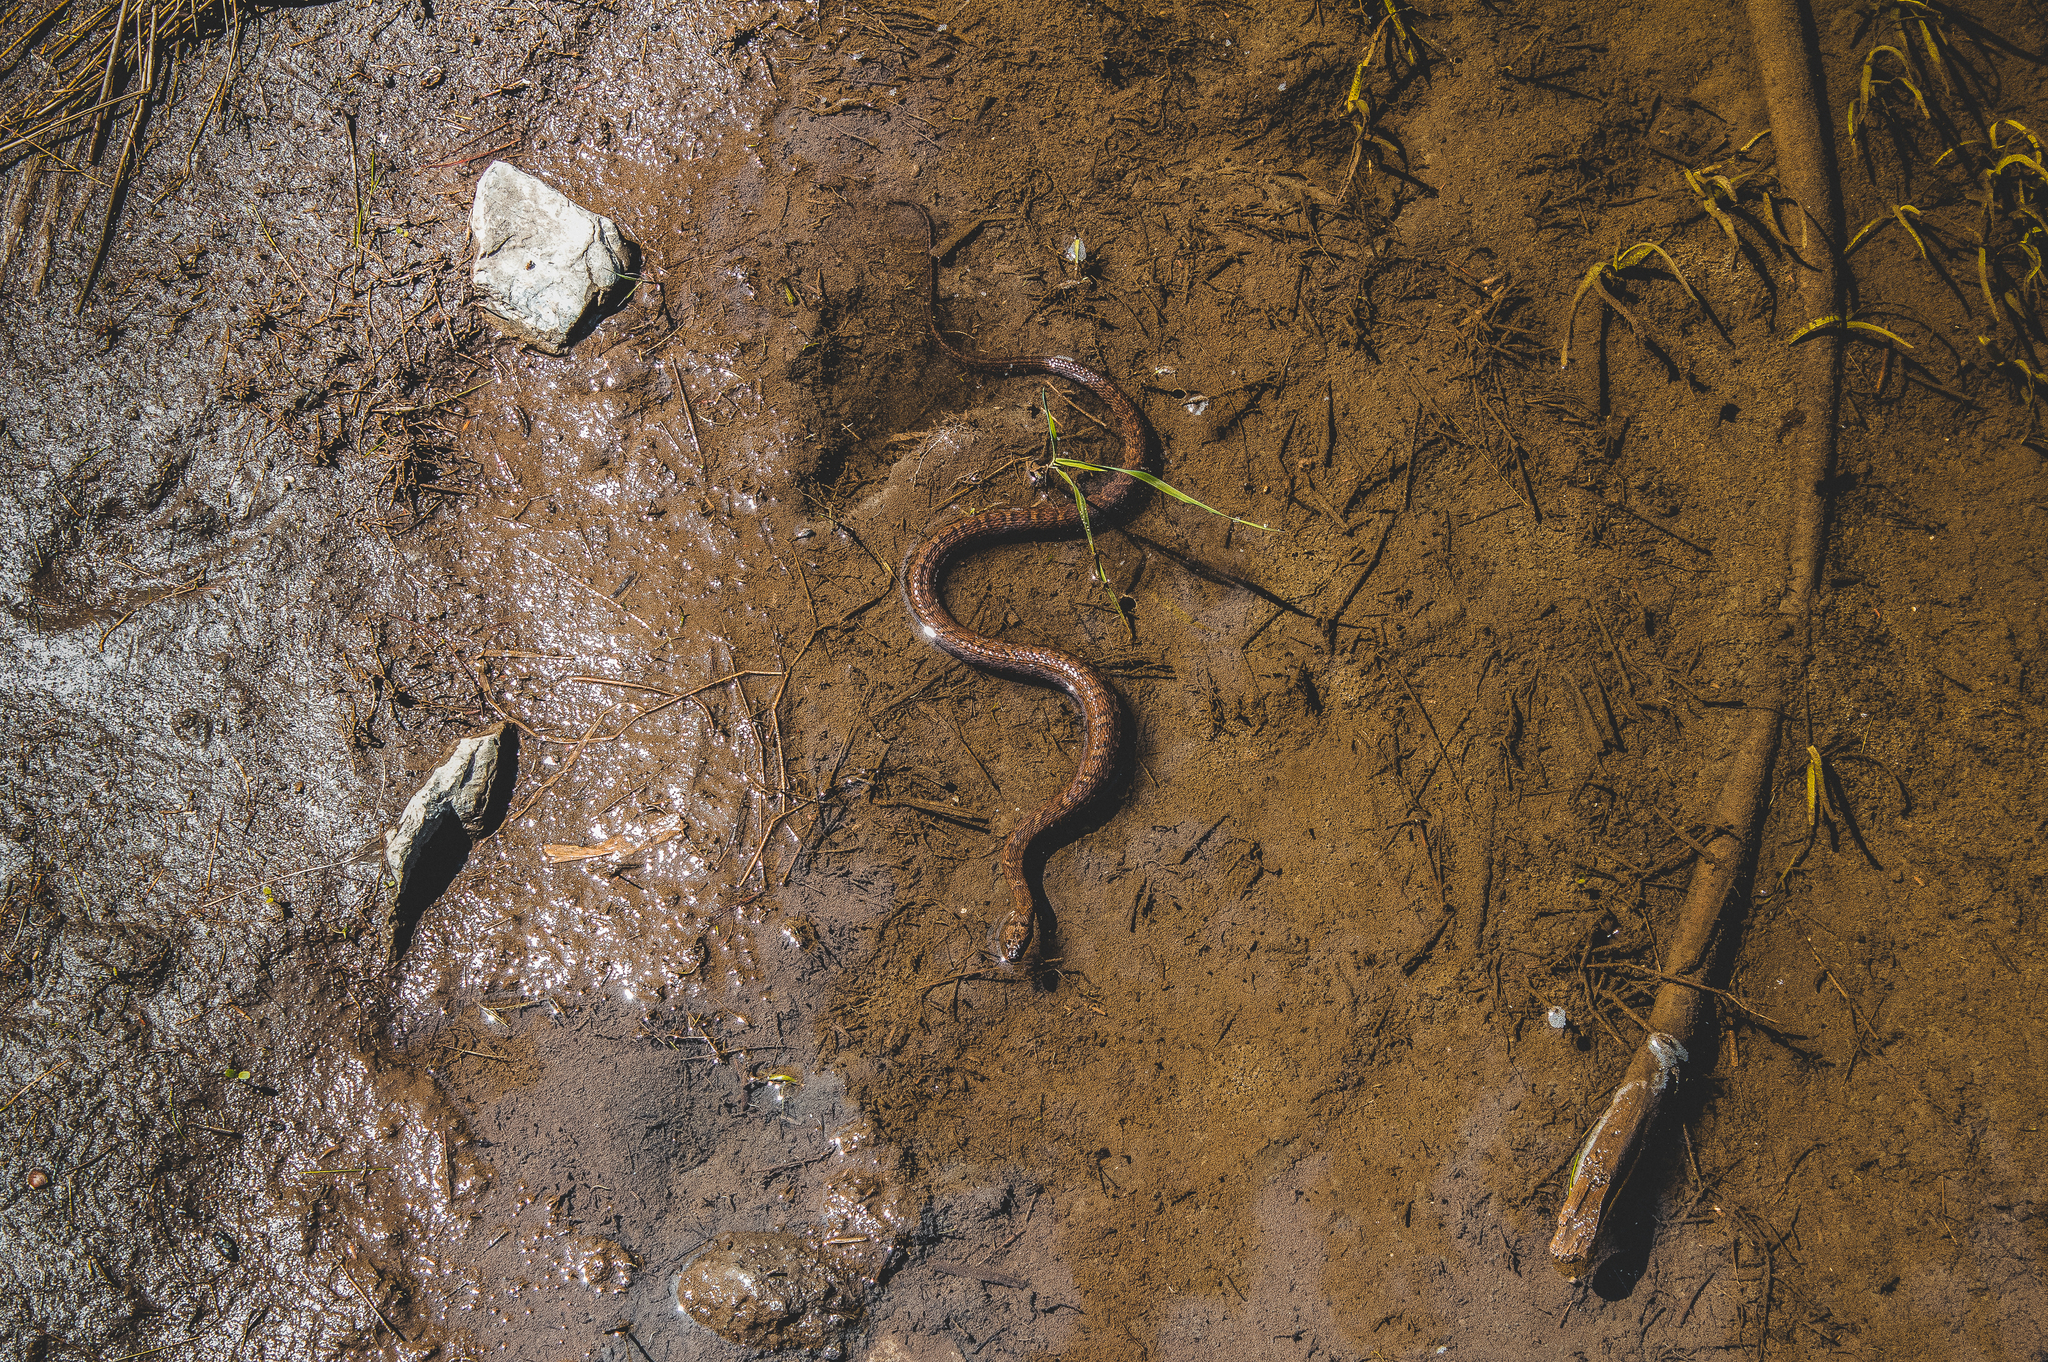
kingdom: Animalia
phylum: Chordata
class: Squamata
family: Colubridae
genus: Nerodia
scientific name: Nerodia sipedon
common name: Northern water snake
